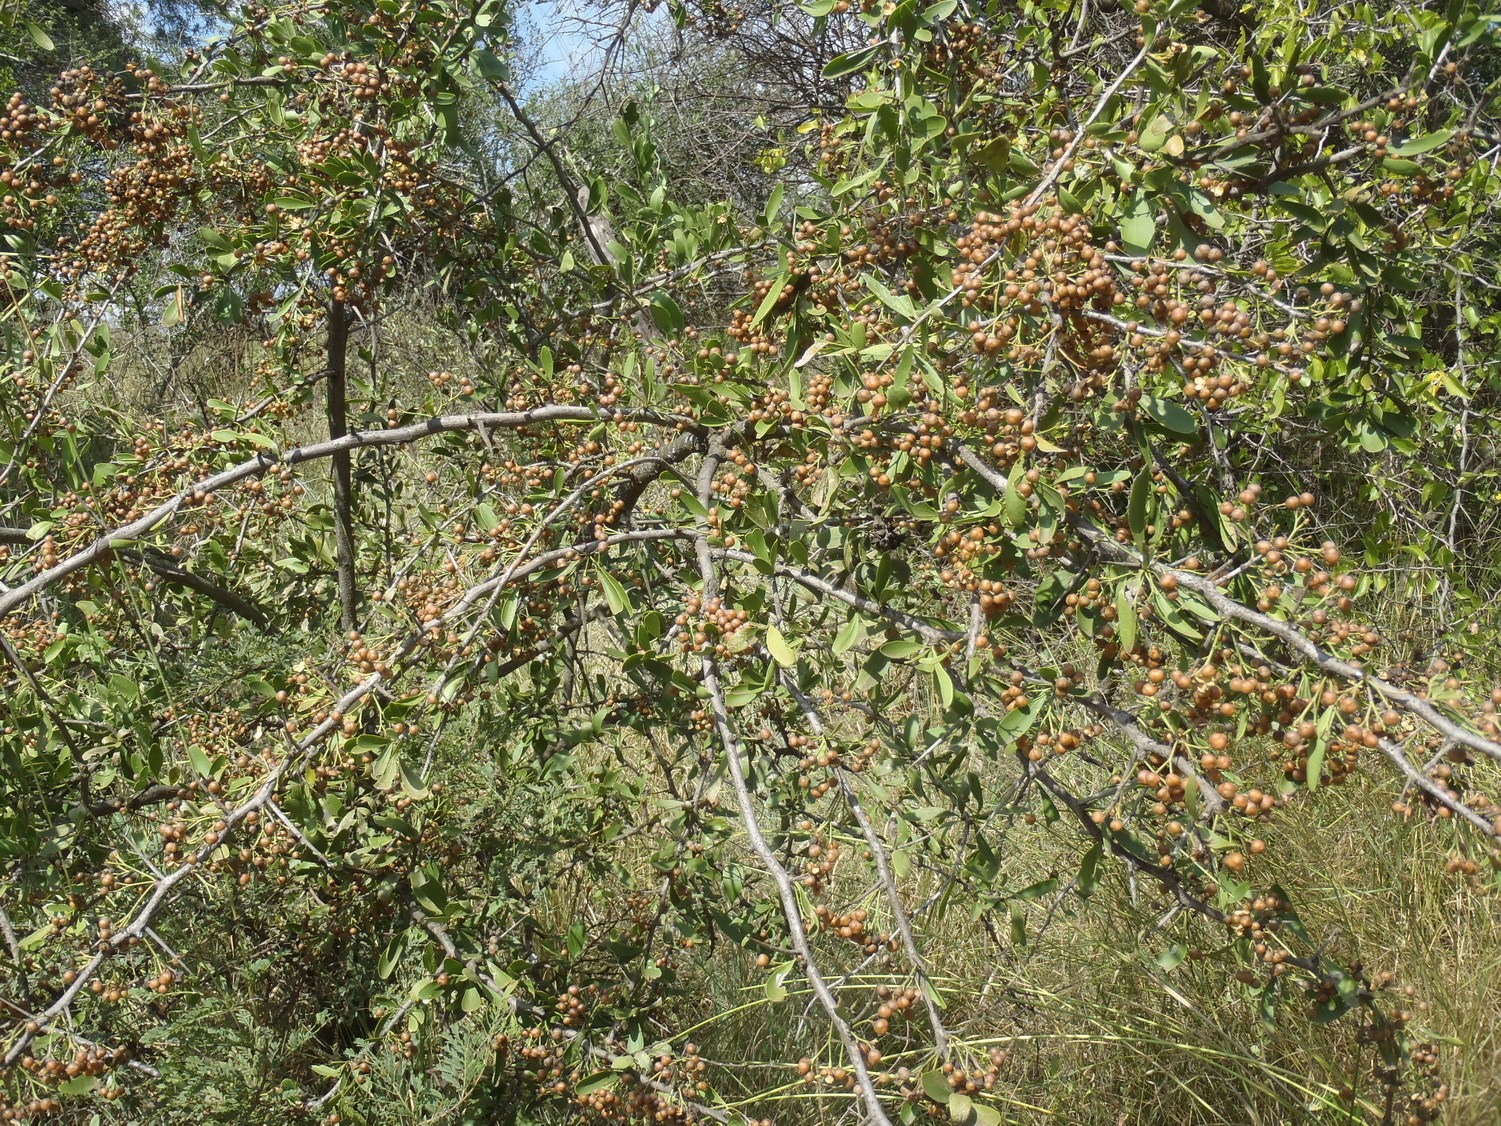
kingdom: Plantae
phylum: Tracheophyta
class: Magnoliopsida
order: Celastrales
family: Celastraceae
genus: Gymnosporia
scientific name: Gymnosporia buxifolia
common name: Common spike-thorn
